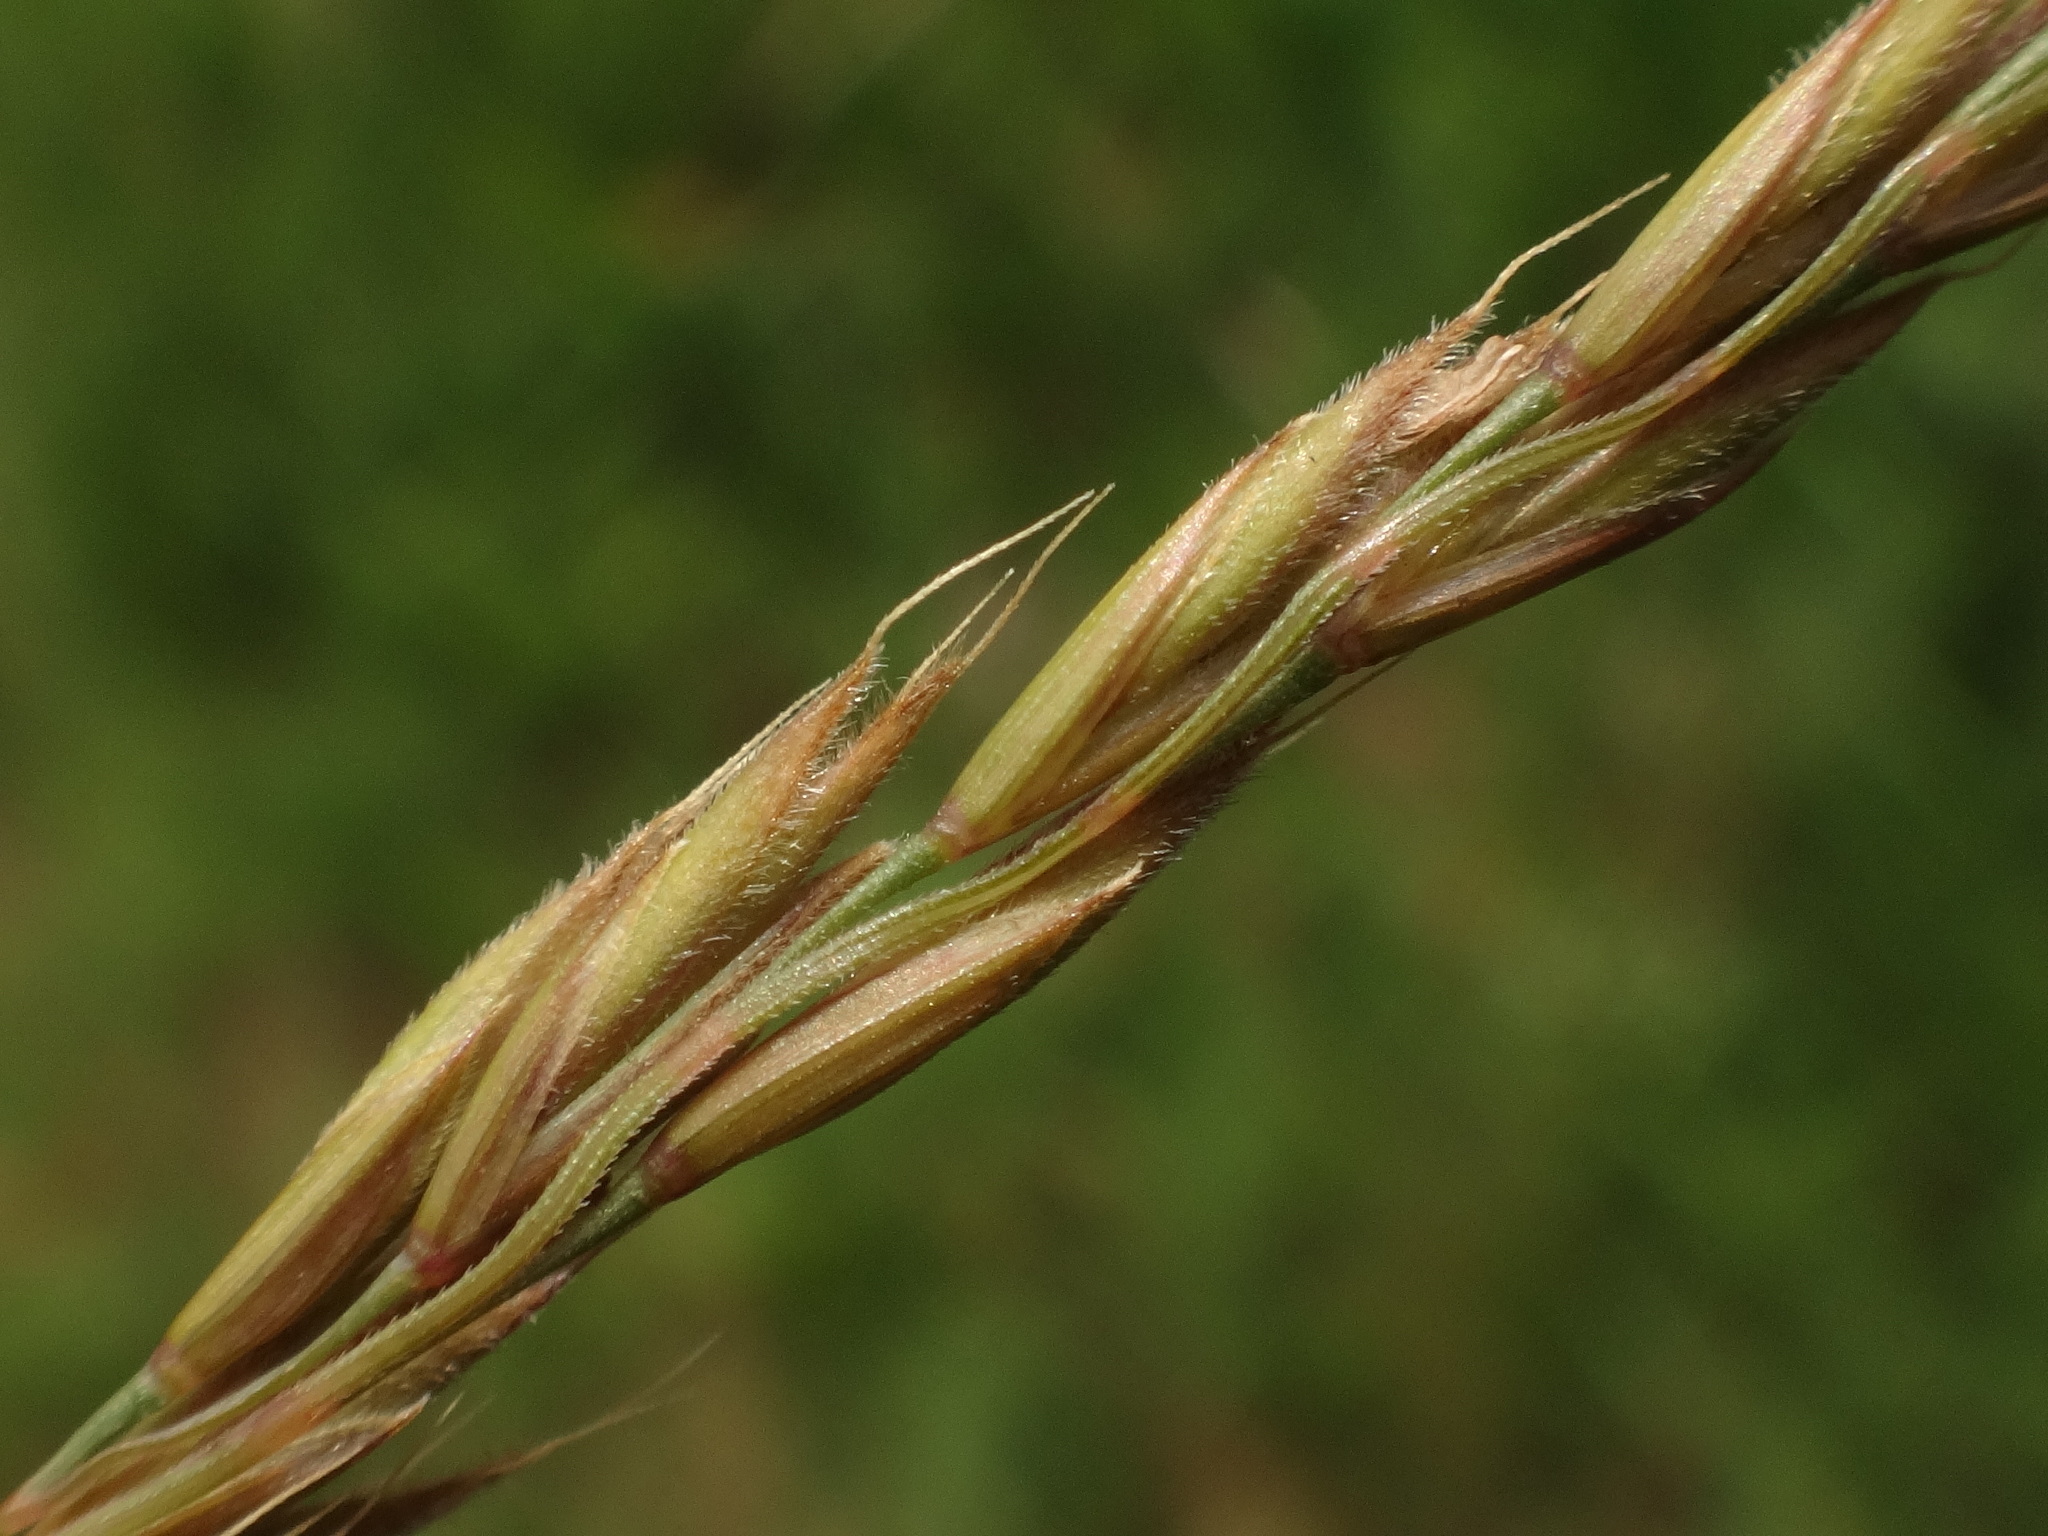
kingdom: Plantae
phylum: Tracheophyta
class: Liliopsida
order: Poales
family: Poaceae
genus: Festuca
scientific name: Festuca rupicola
